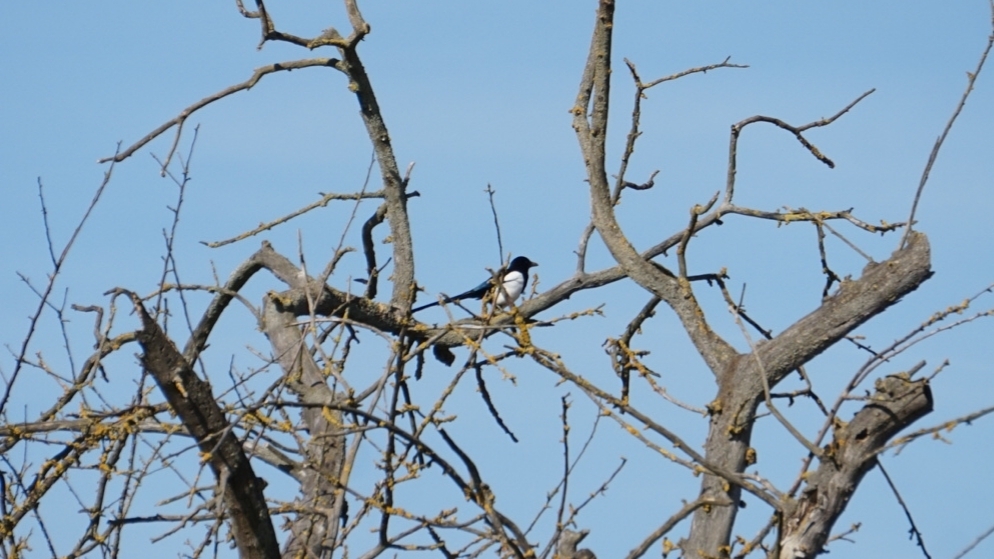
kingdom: Animalia
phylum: Chordata
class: Aves
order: Passeriformes
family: Corvidae
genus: Pica
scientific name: Pica pica
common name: Eurasian magpie
